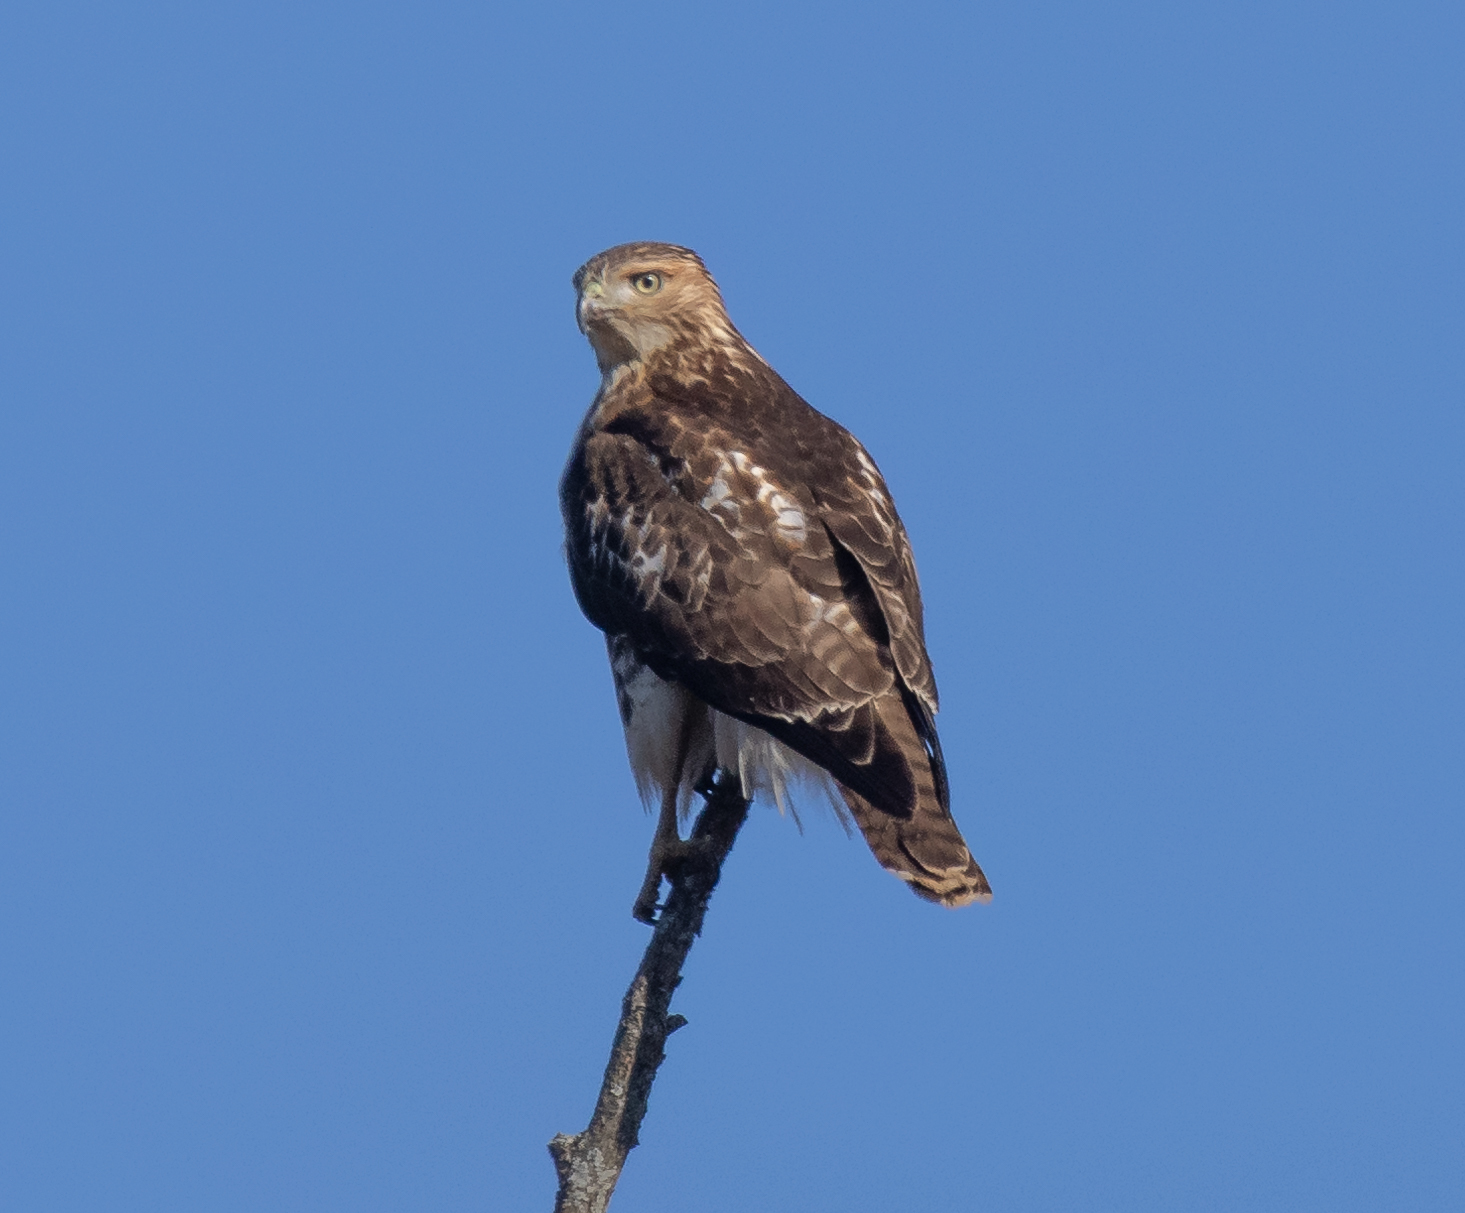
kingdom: Animalia
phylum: Chordata
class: Aves
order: Accipitriformes
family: Accipitridae
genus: Buteo
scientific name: Buteo jamaicensis
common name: Red-tailed hawk
